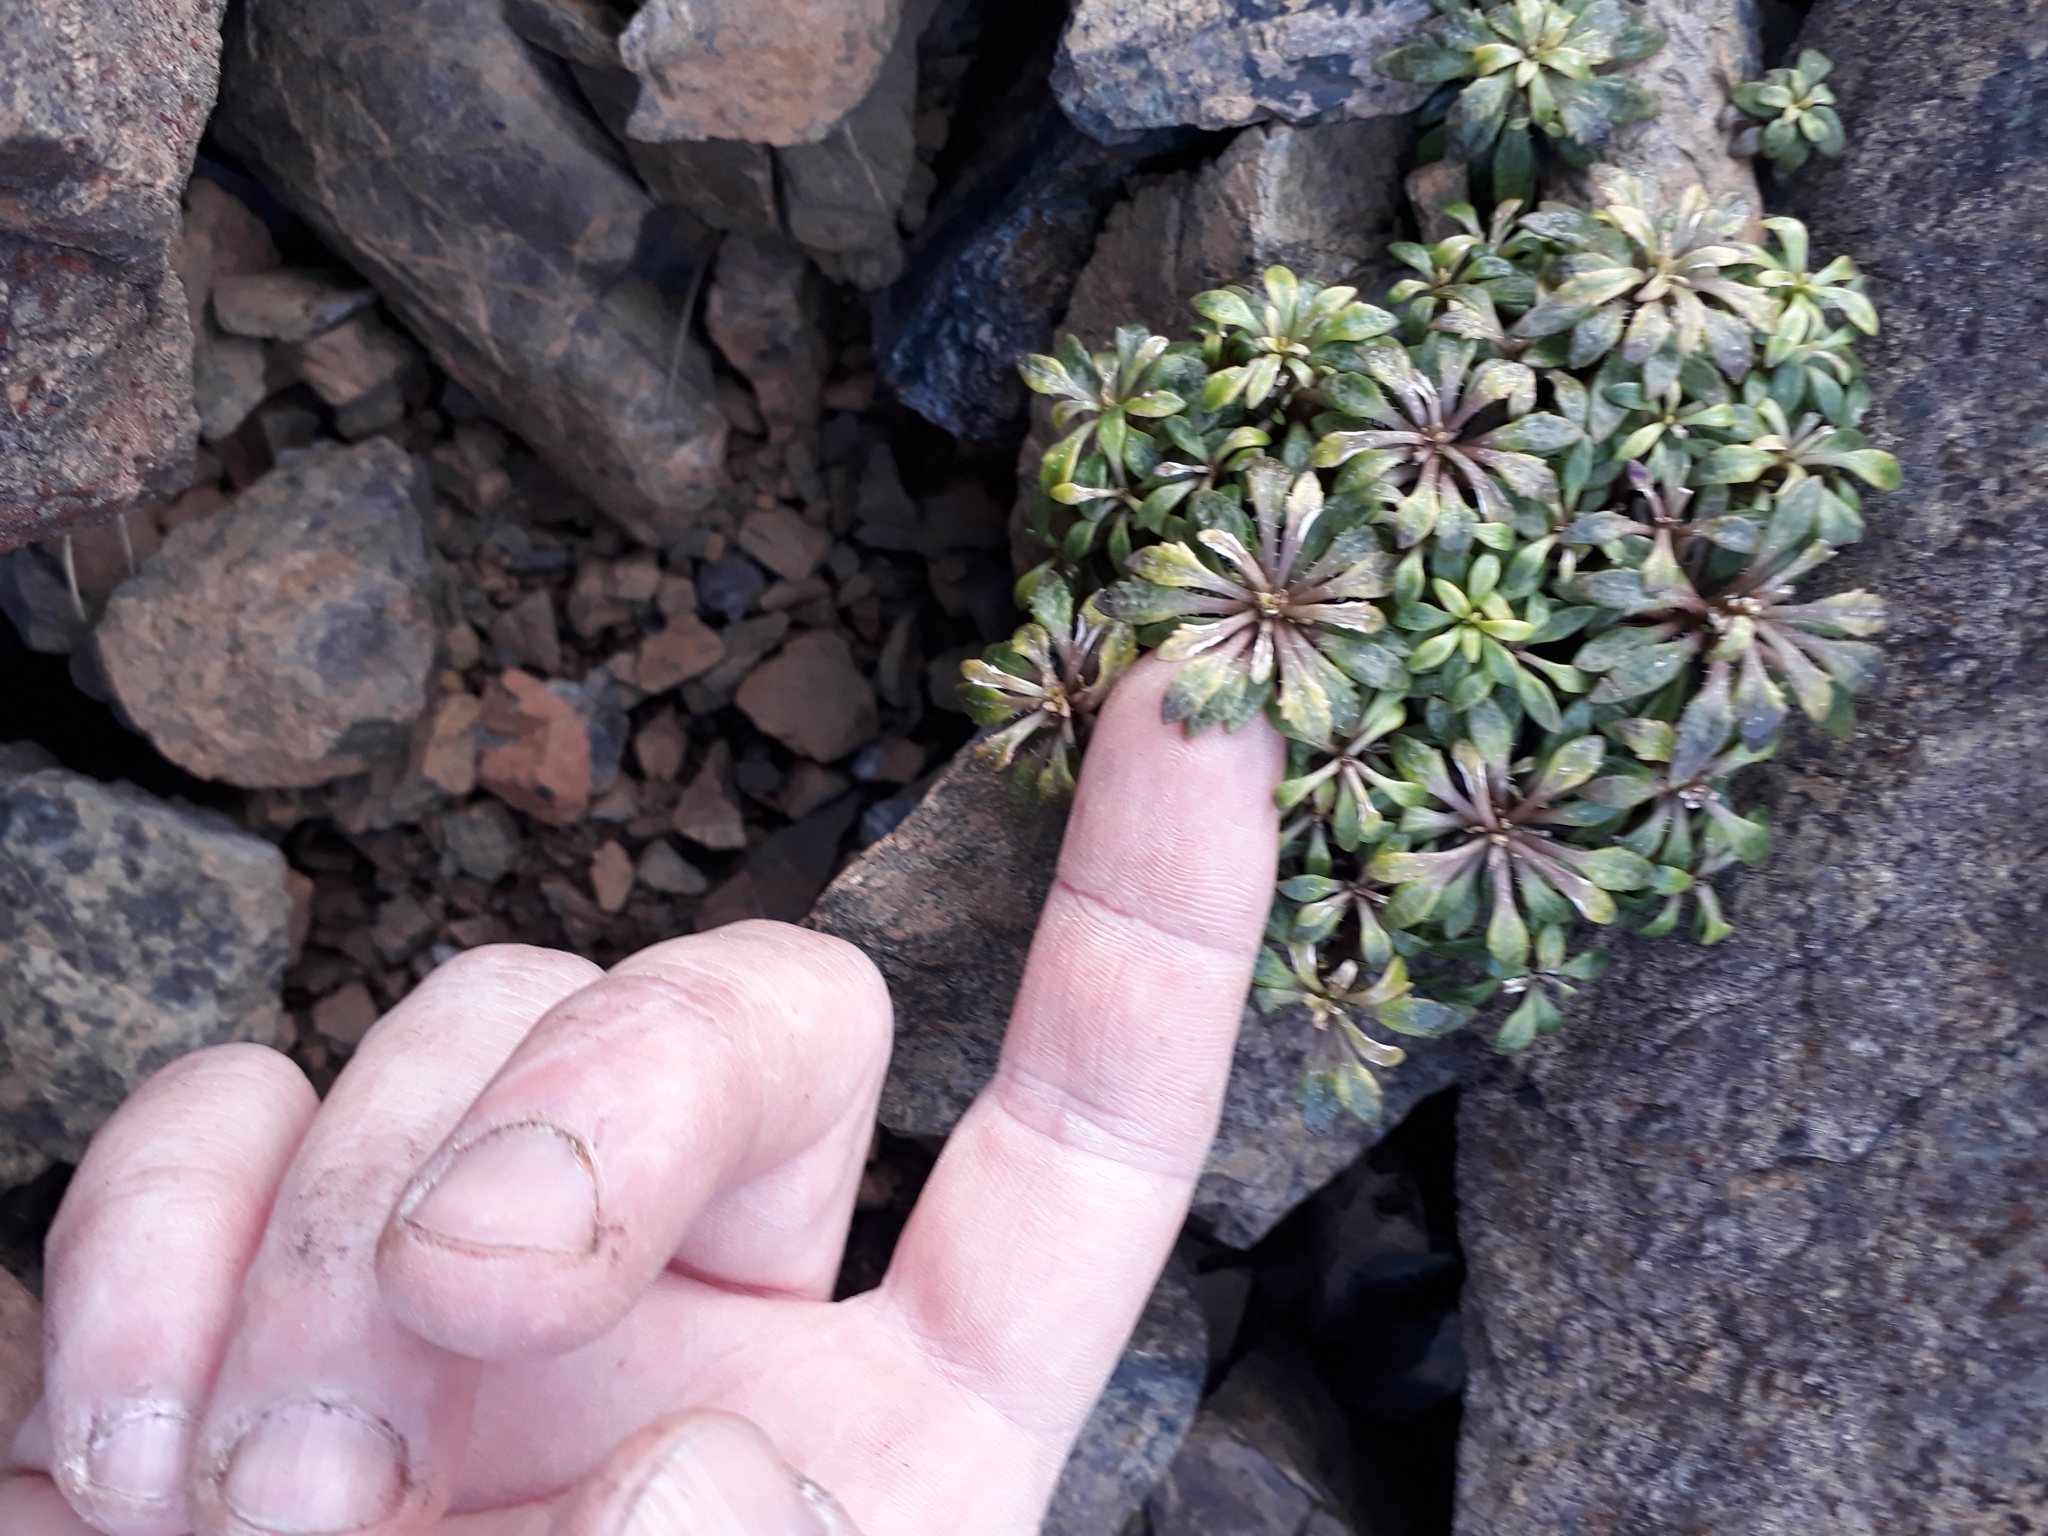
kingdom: Plantae
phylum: Tracheophyta
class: Magnoliopsida
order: Asterales
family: Campanulaceae
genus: Wahlenbergia
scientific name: Wahlenbergia albomarginata
